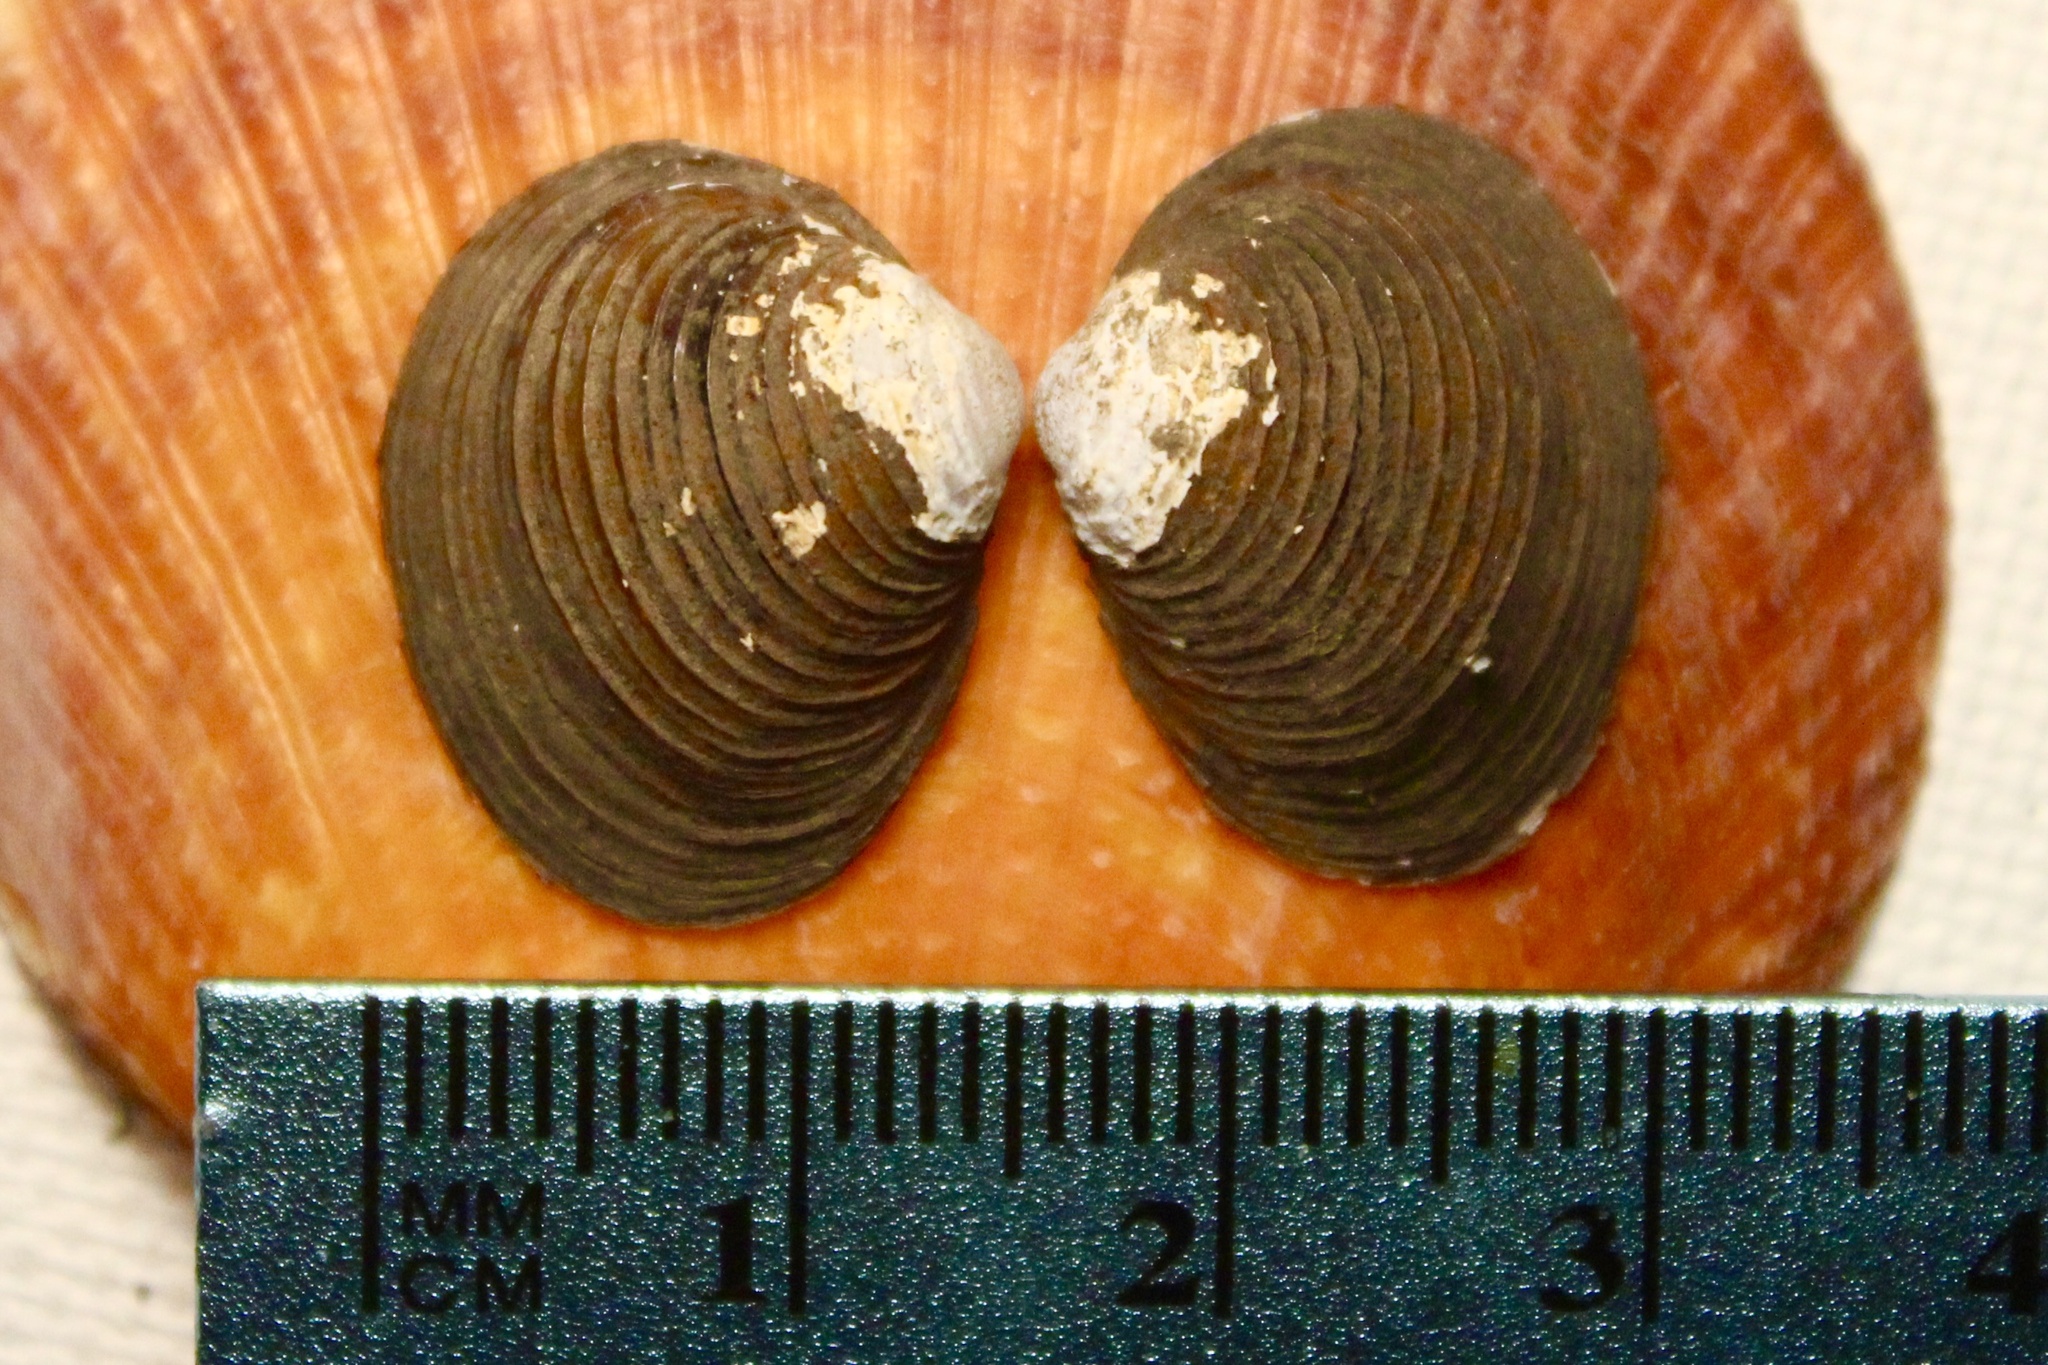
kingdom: Animalia
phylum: Mollusca
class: Bivalvia
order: Venerida
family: Cyrenidae
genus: Corbicula
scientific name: Corbicula fluminea
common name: Asian clam
